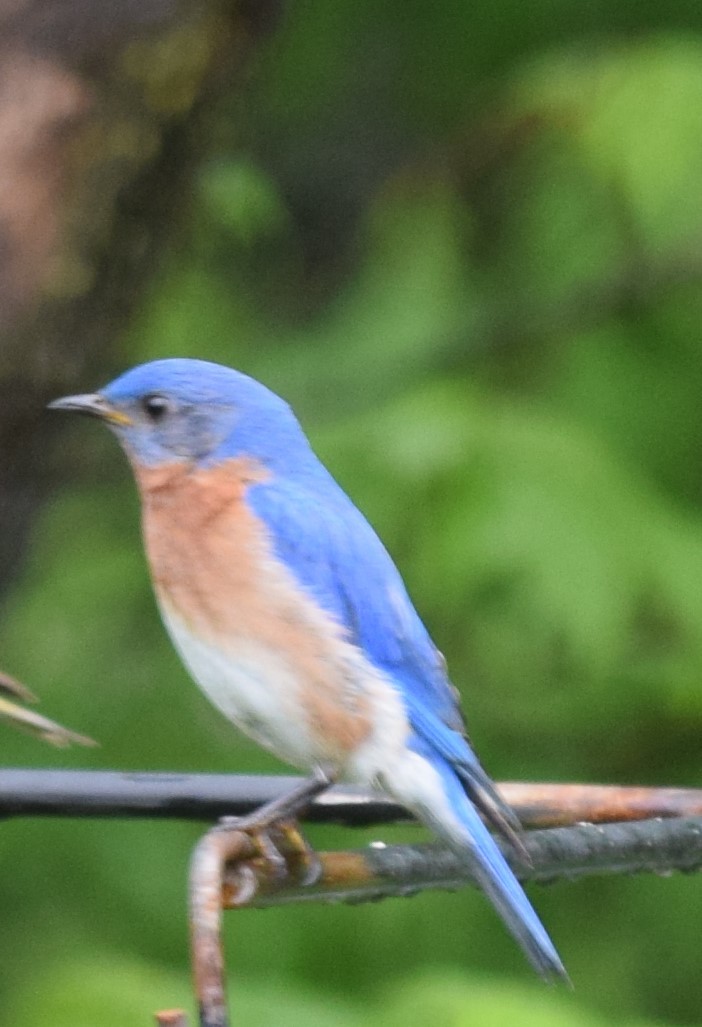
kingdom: Animalia
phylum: Chordata
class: Aves
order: Passeriformes
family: Turdidae
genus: Sialia
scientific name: Sialia sialis
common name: Eastern bluebird
